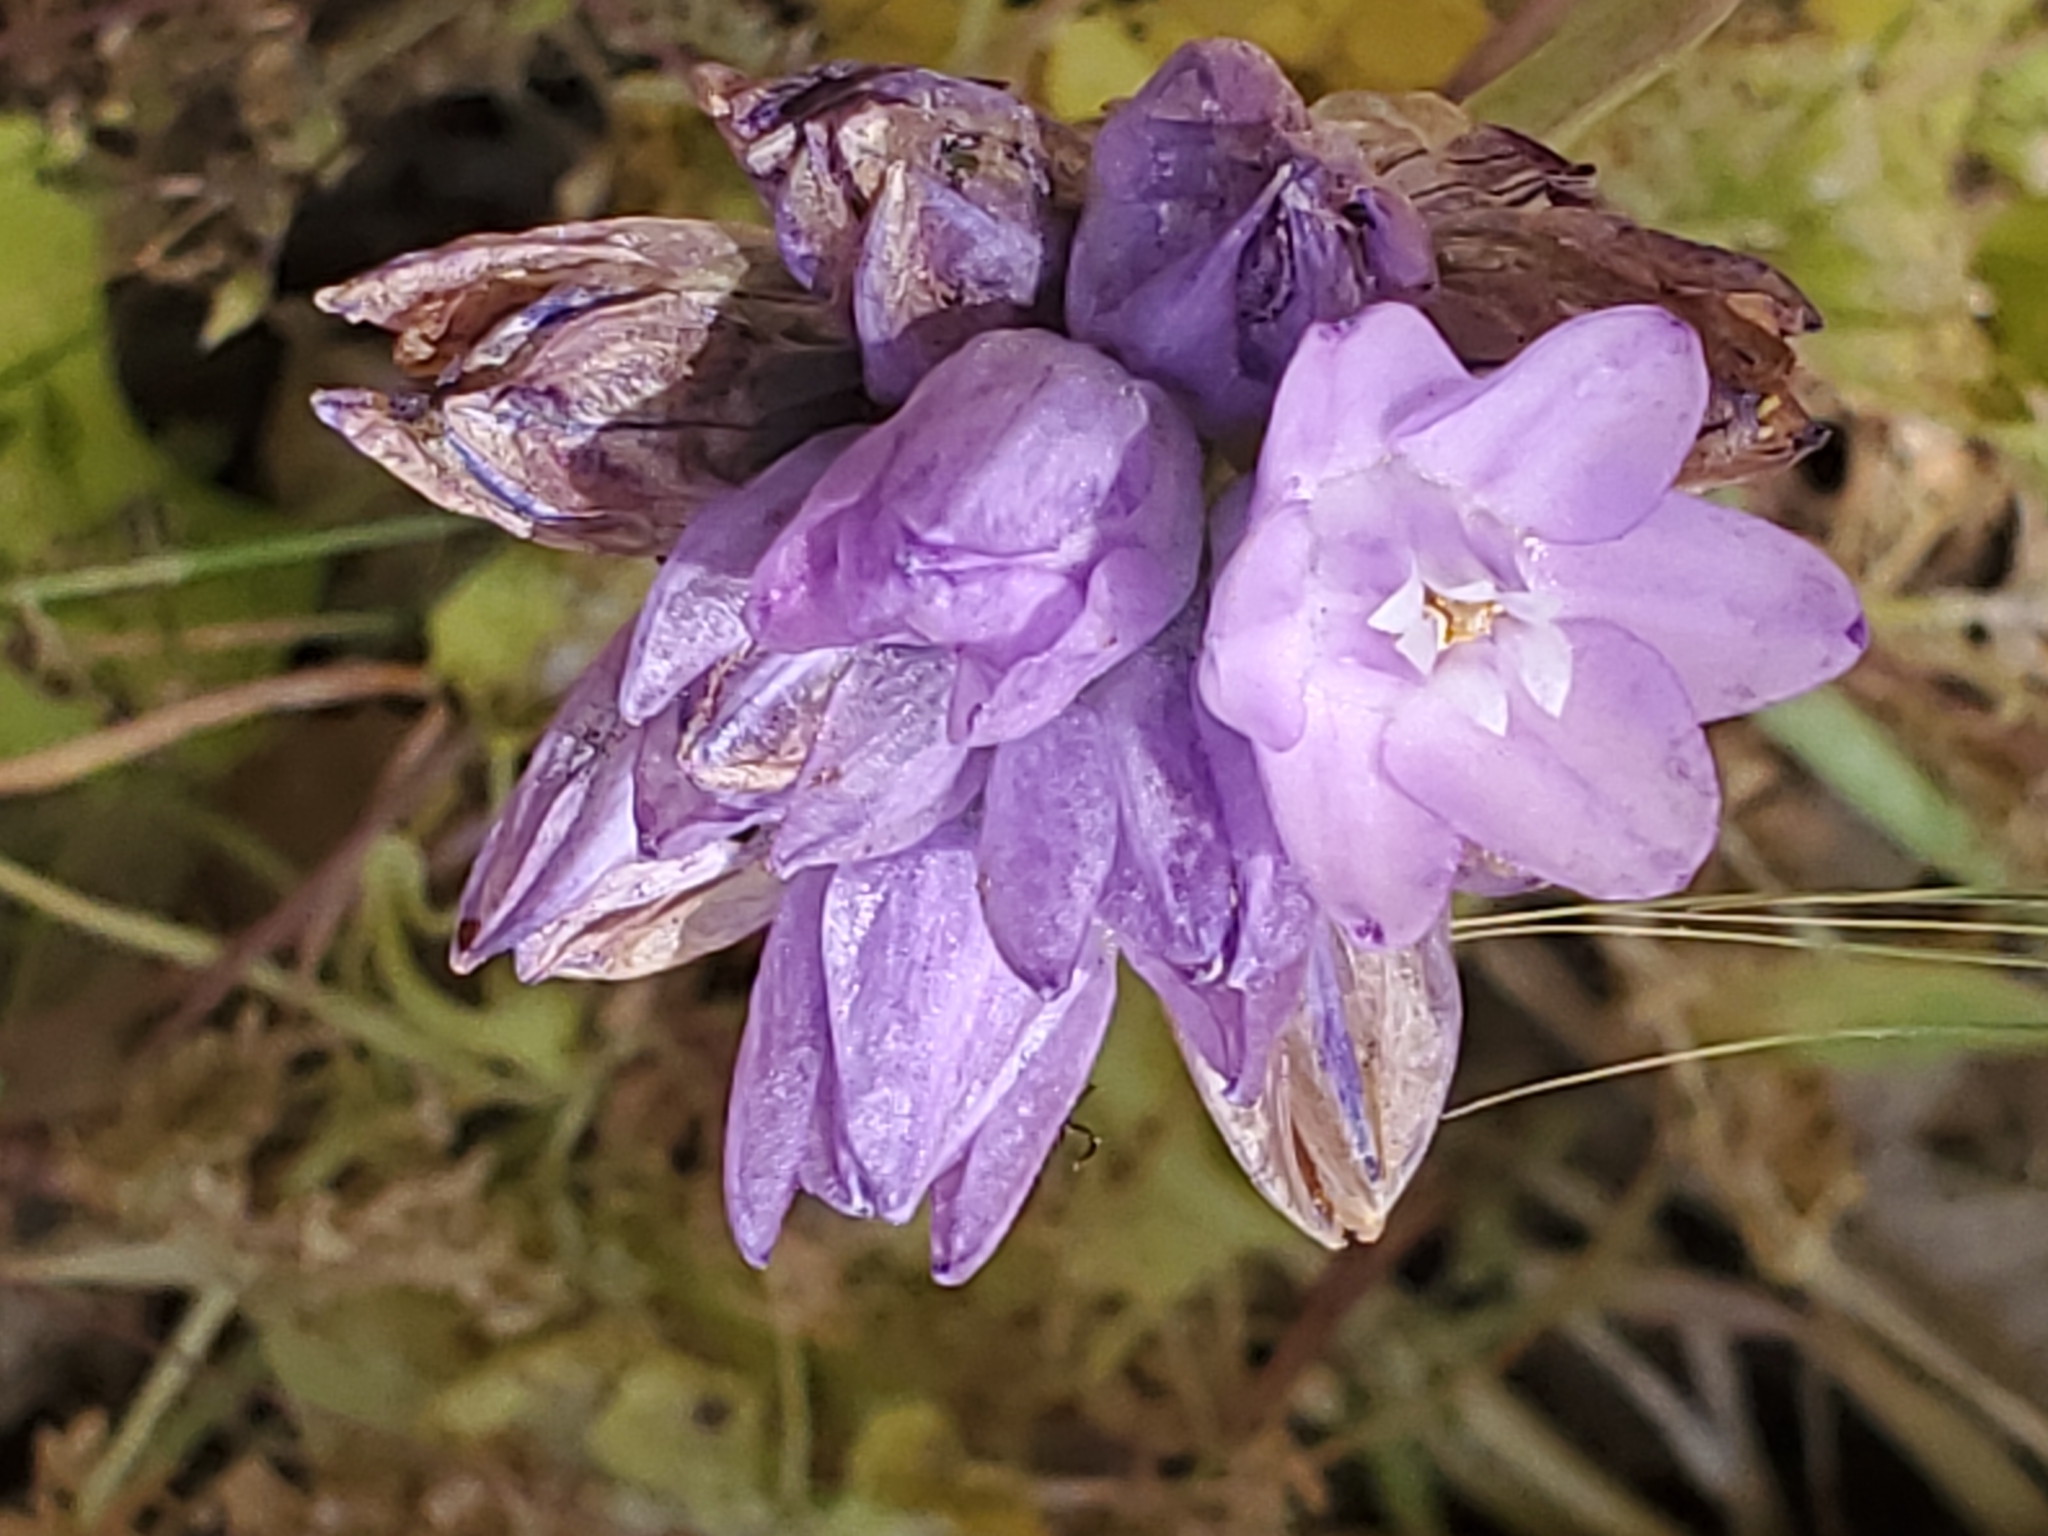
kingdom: Plantae
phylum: Tracheophyta
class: Liliopsida
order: Asparagales
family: Asparagaceae
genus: Dipterostemon
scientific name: Dipterostemon capitatus
